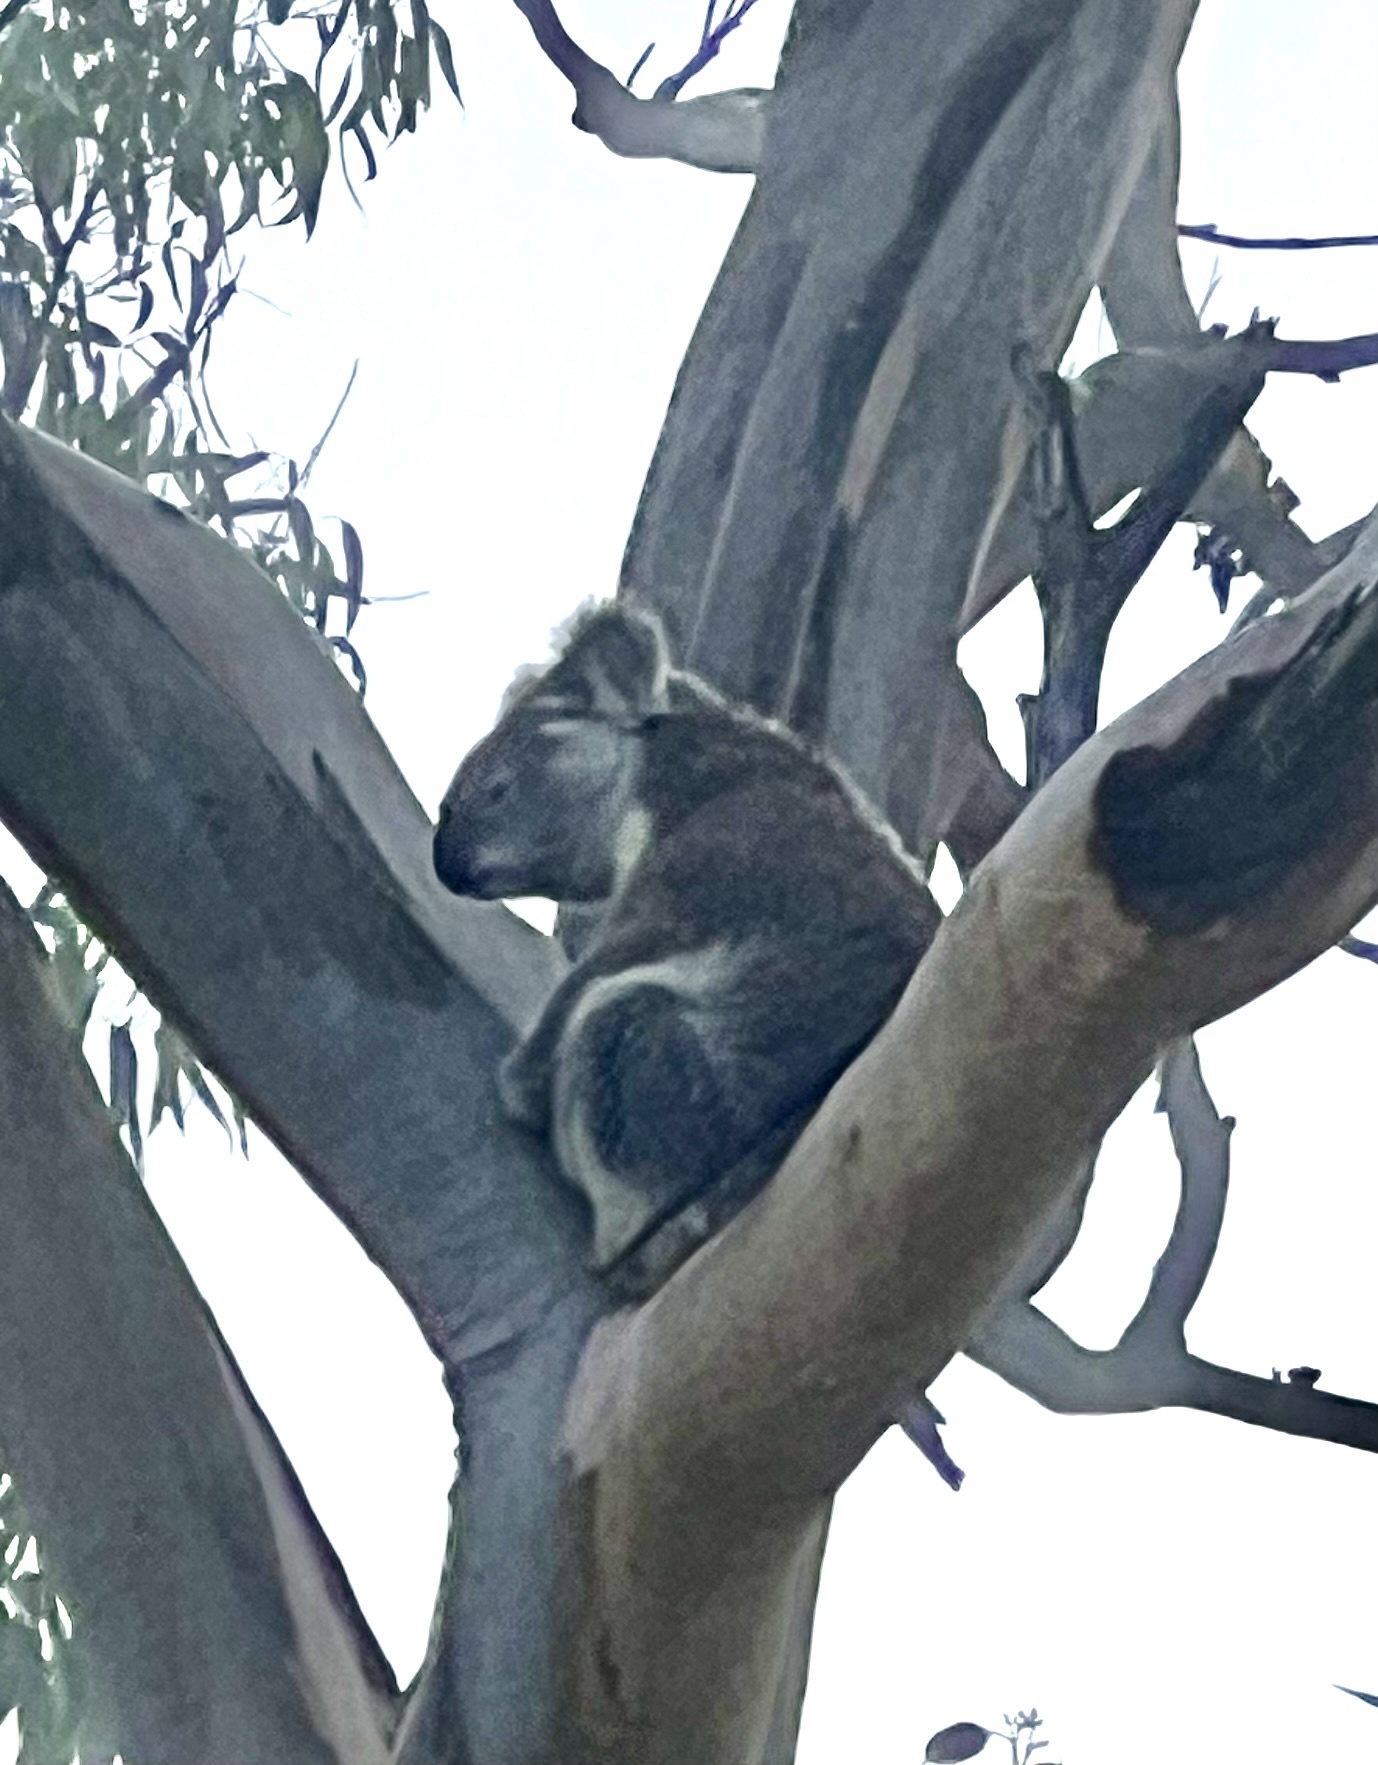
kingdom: Animalia
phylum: Chordata
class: Mammalia
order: Diprotodontia
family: Phascolarctidae
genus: Phascolarctos
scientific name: Phascolarctos cinereus
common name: Koala
